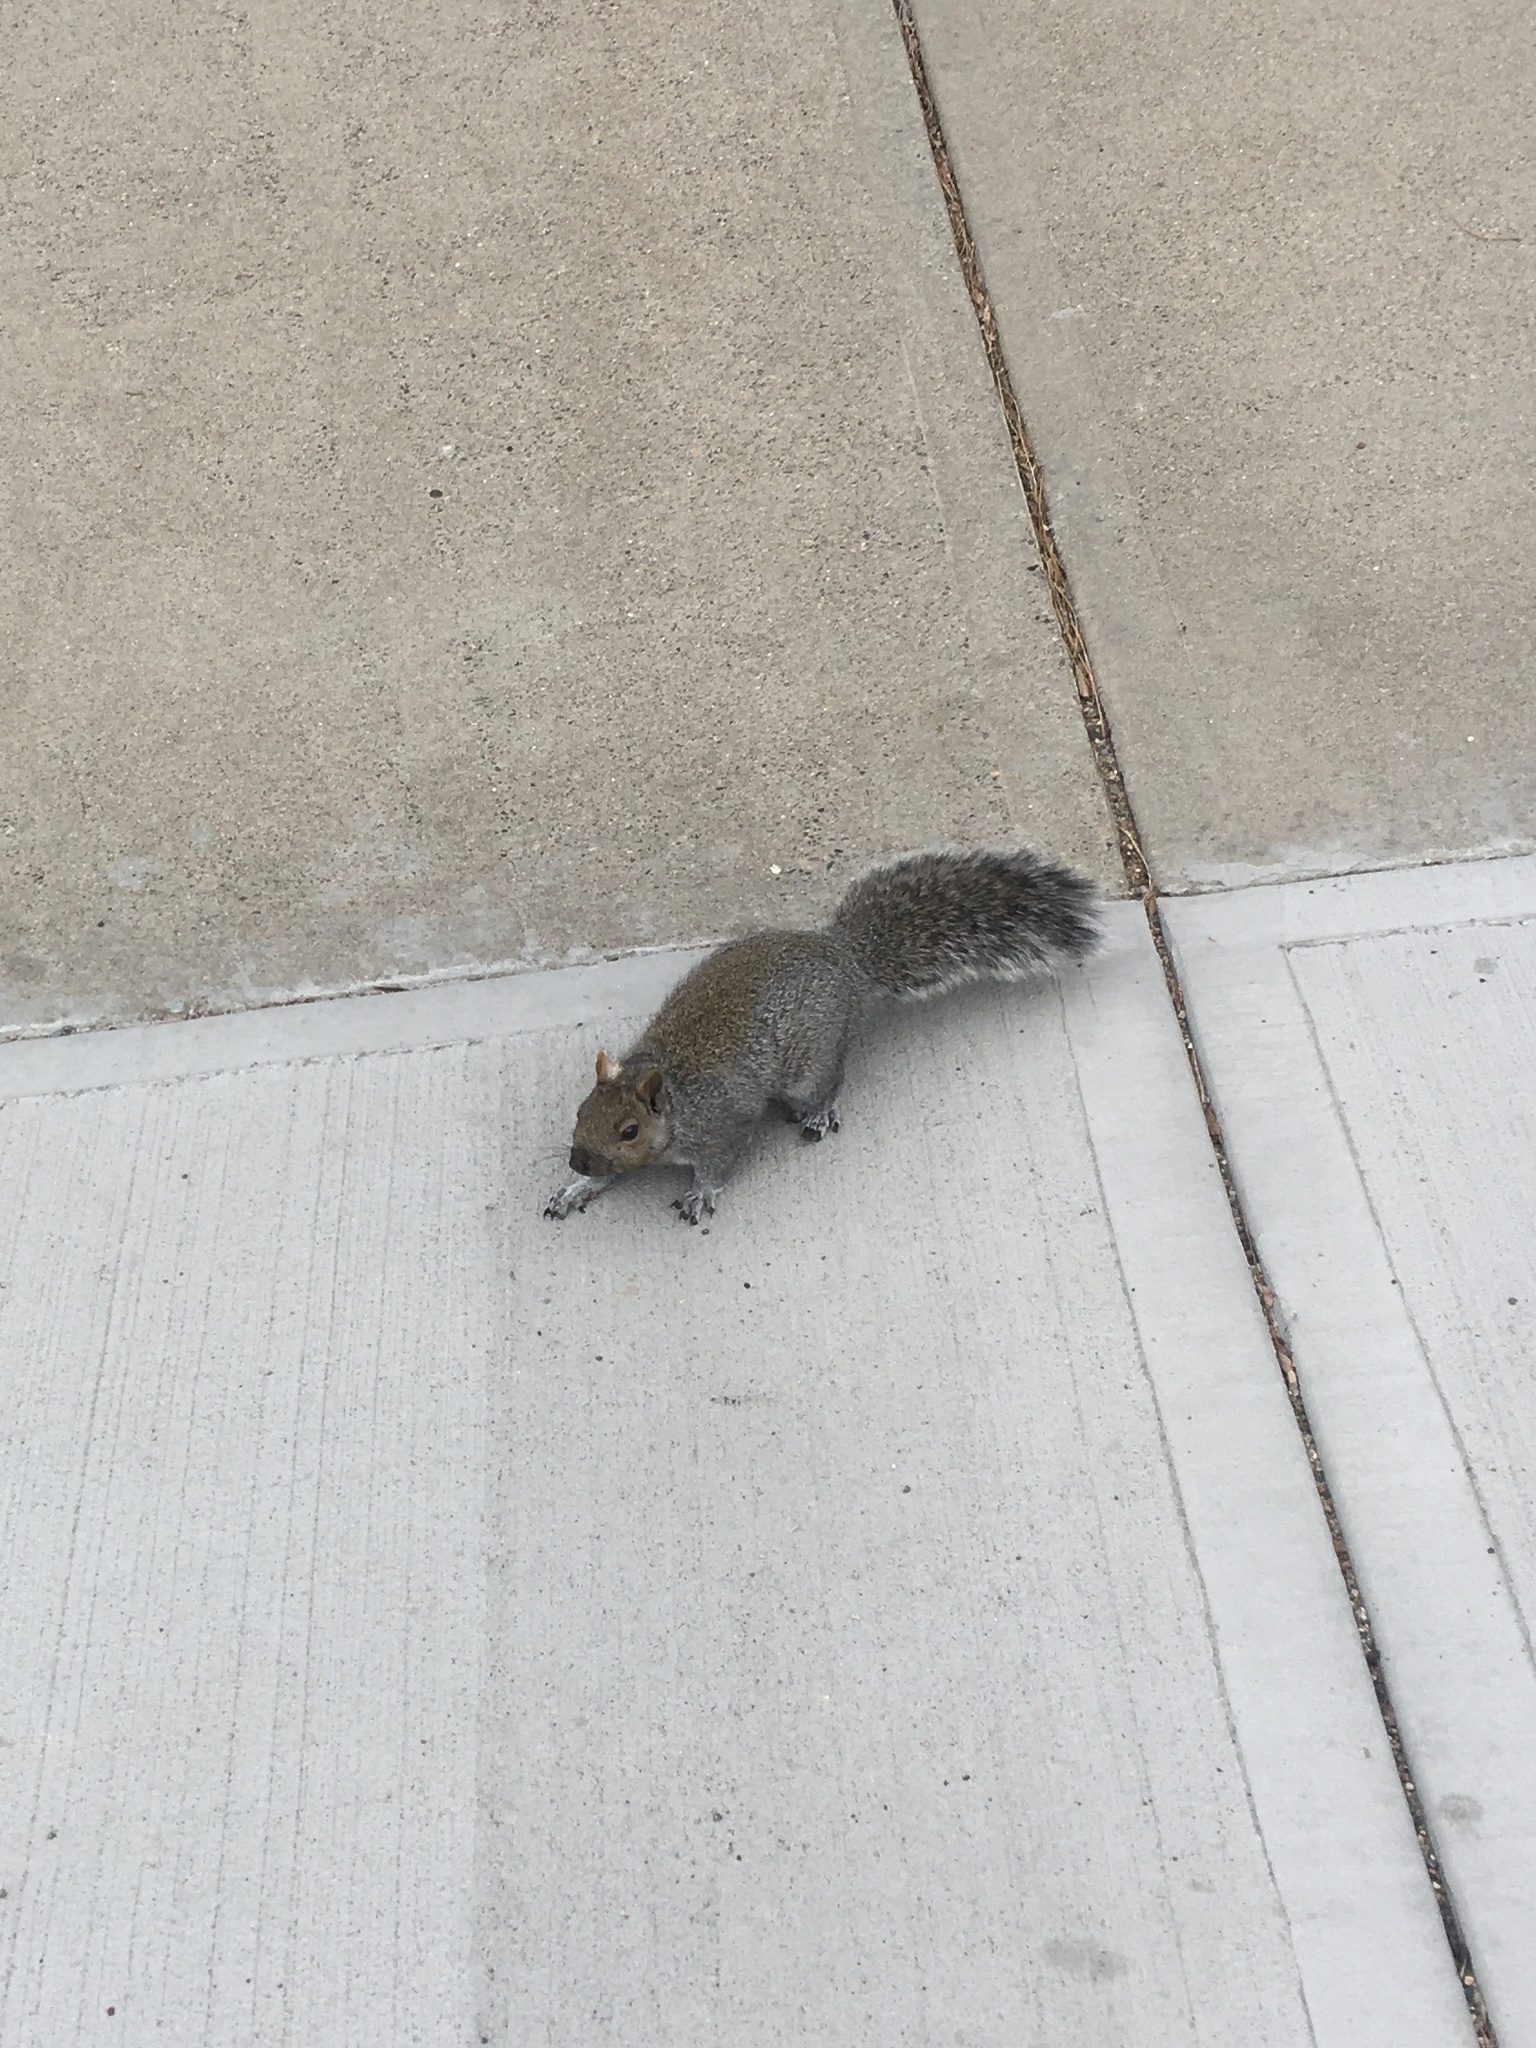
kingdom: Animalia
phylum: Chordata
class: Mammalia
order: Rodentia
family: Sciuridae
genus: Sciurus
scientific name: Sciurus carolinensis
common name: Eastern gray squirrel
